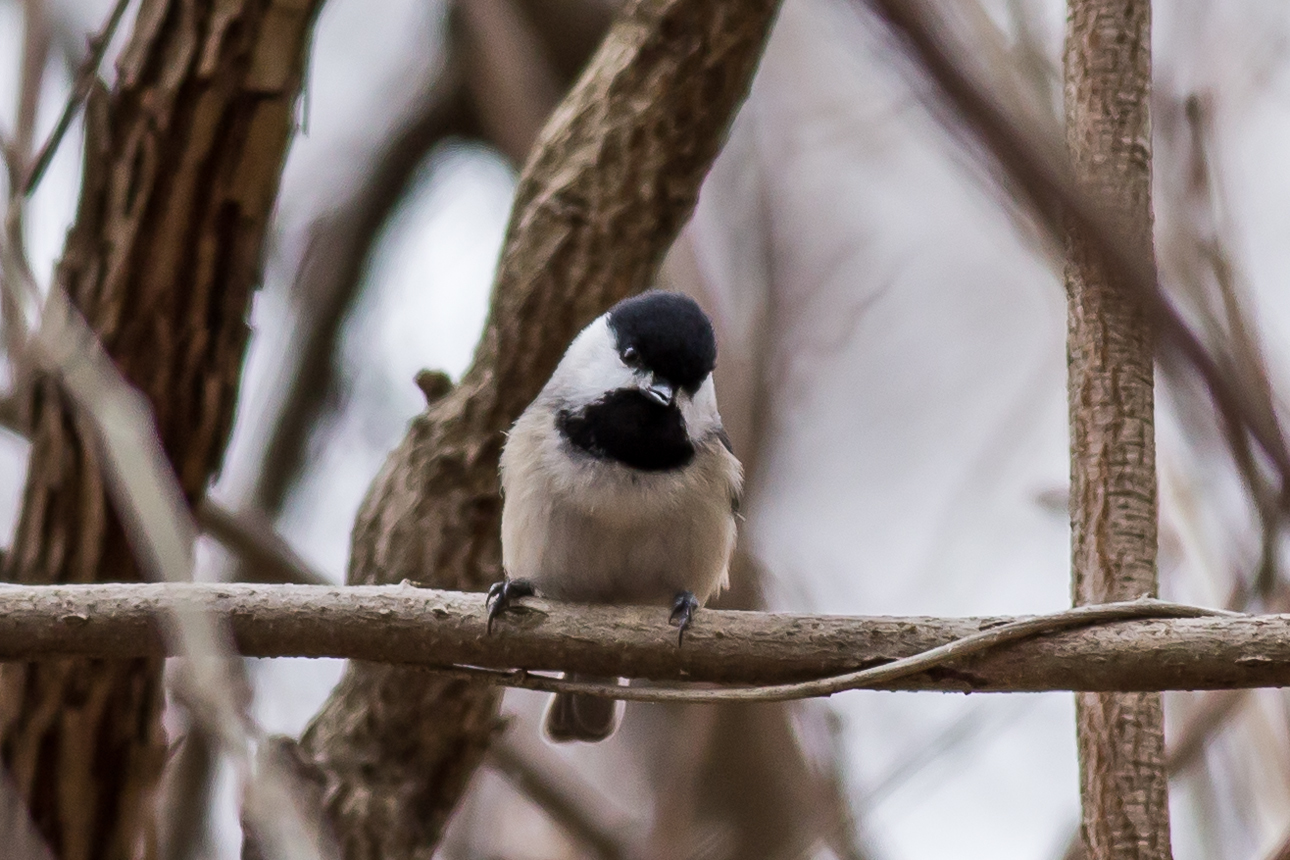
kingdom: Animalia
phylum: Chordata
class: Aves
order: Passeriformes
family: Paridae
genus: Poecile
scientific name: Poecile carolinensis
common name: Carolina chickadee
